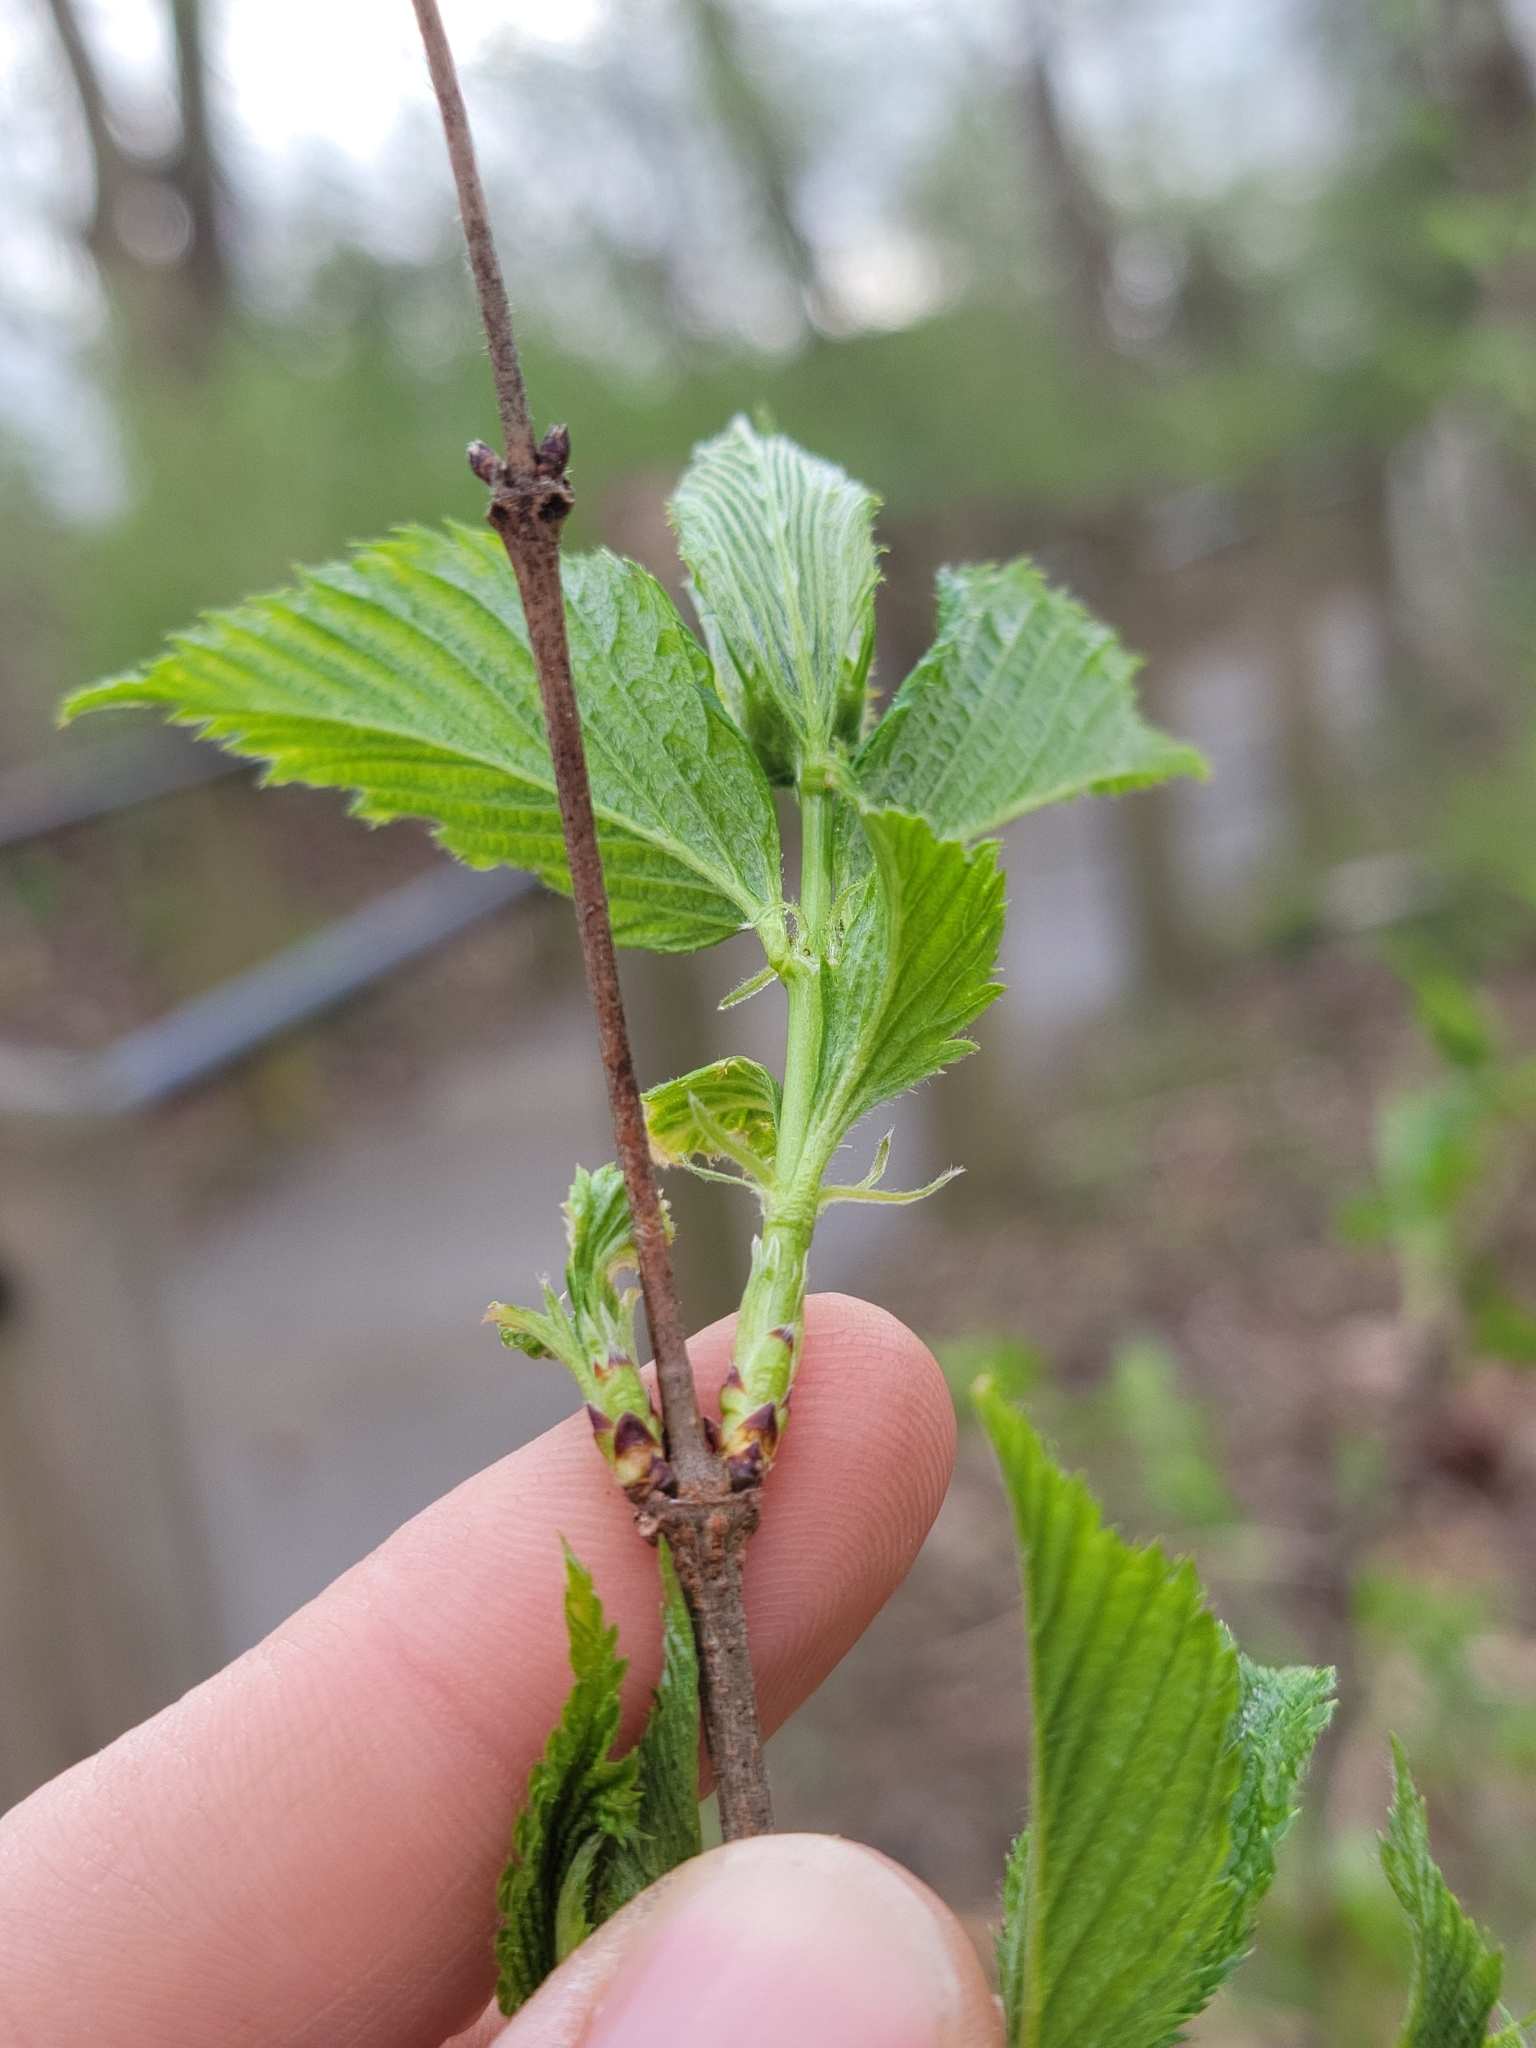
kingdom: Plantae
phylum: Tracheophyta
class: Magnoliopsida
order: Rosales
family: Rosaceae
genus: Rhodotypos
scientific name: Rhodotypos scandens
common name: Jetbead
